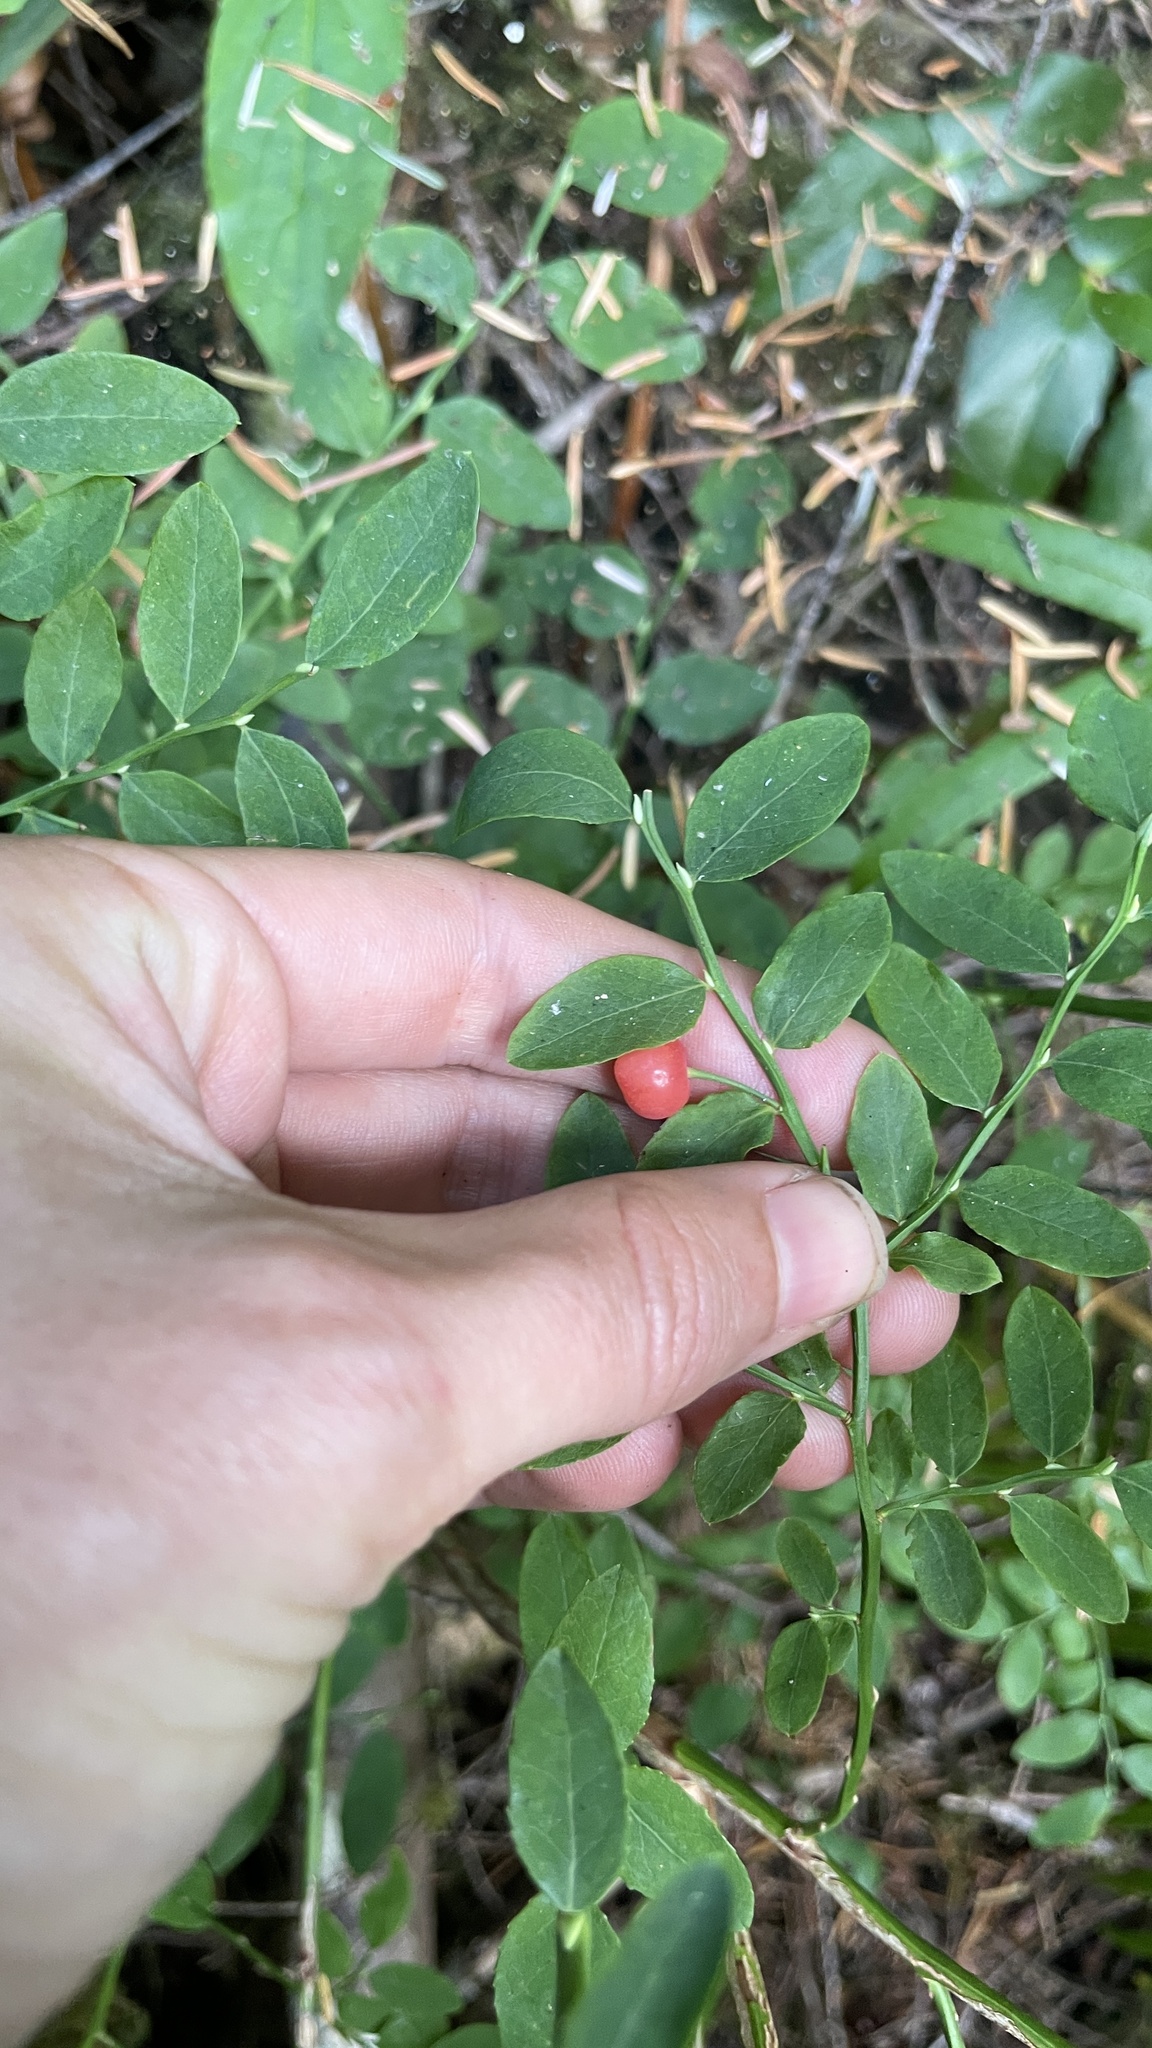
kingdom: Plantae
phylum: Tracheophyta
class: Magnoliopsida
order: Ericales
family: Ericaceae
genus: Vaccinium
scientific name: Vaccinium parvifolium
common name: Red-huckleberry
